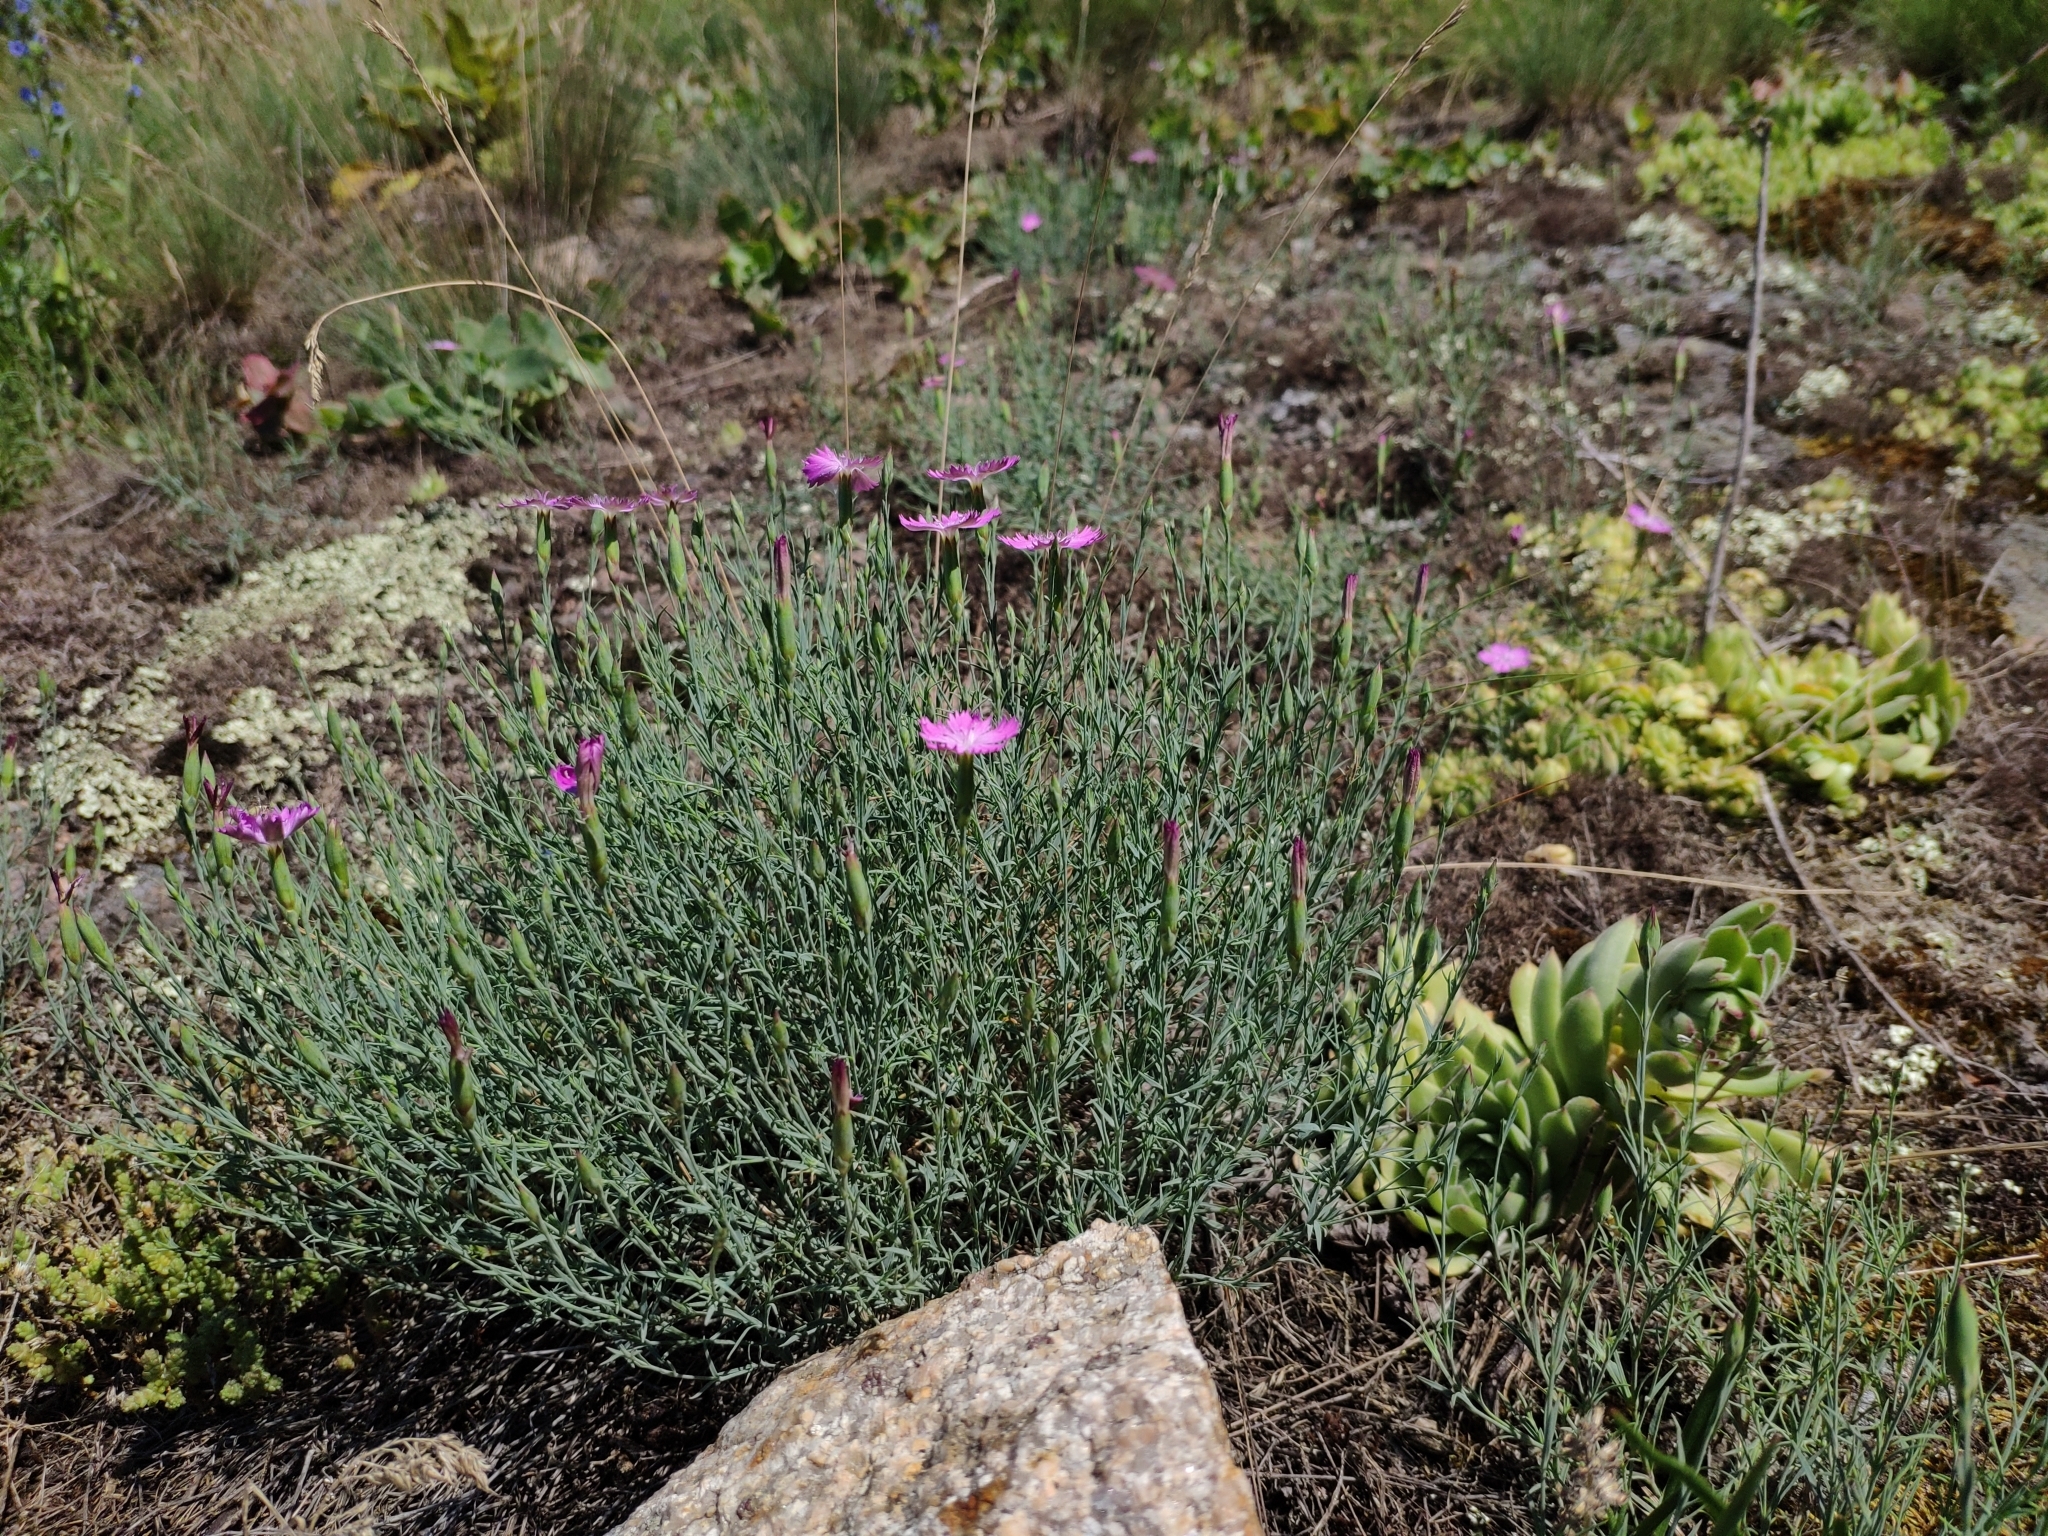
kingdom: Plantae
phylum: Tracheophyta
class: Magnoliopsida
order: Caryophyllales
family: Caryophyllaceae
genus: Dianthus
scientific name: Dianthus hypanicus
